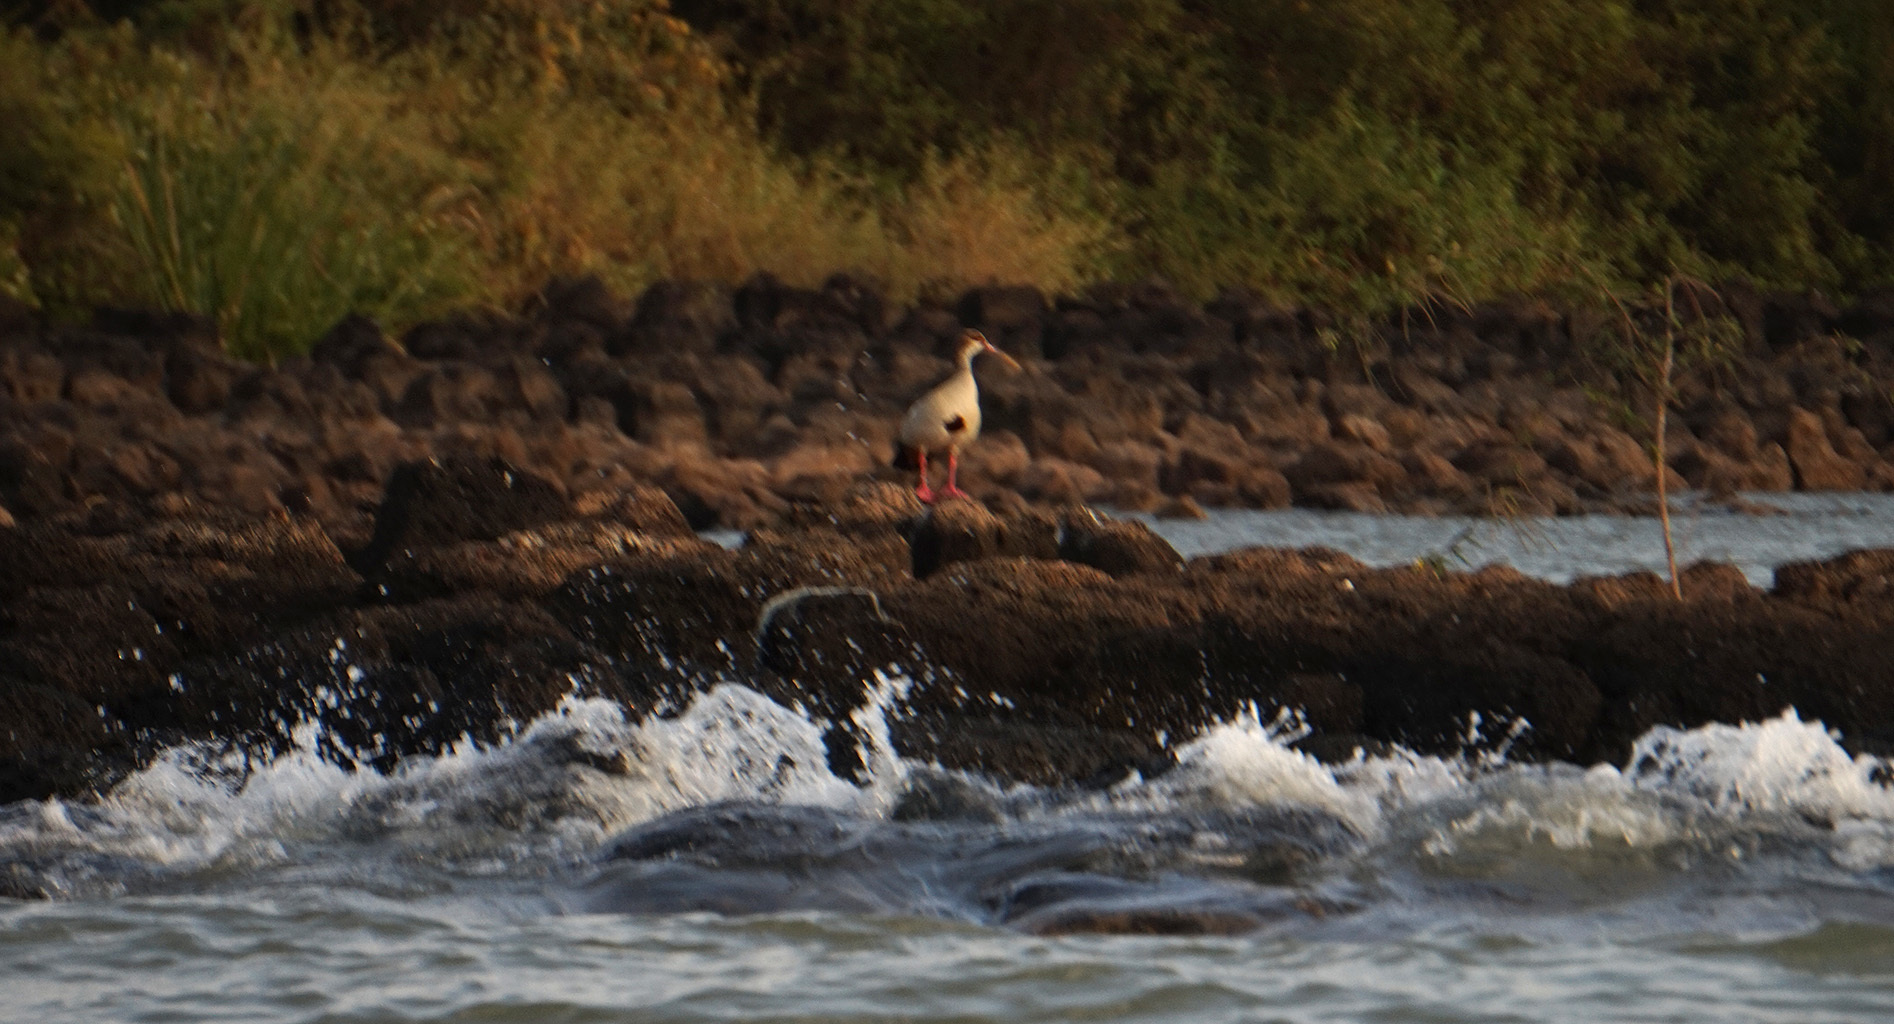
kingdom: Animalia
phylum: Chordata
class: Aves
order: Anseriformes
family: Anatidae
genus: Alopochen
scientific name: Alopochen aegyptiaca
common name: Egyptian goose
